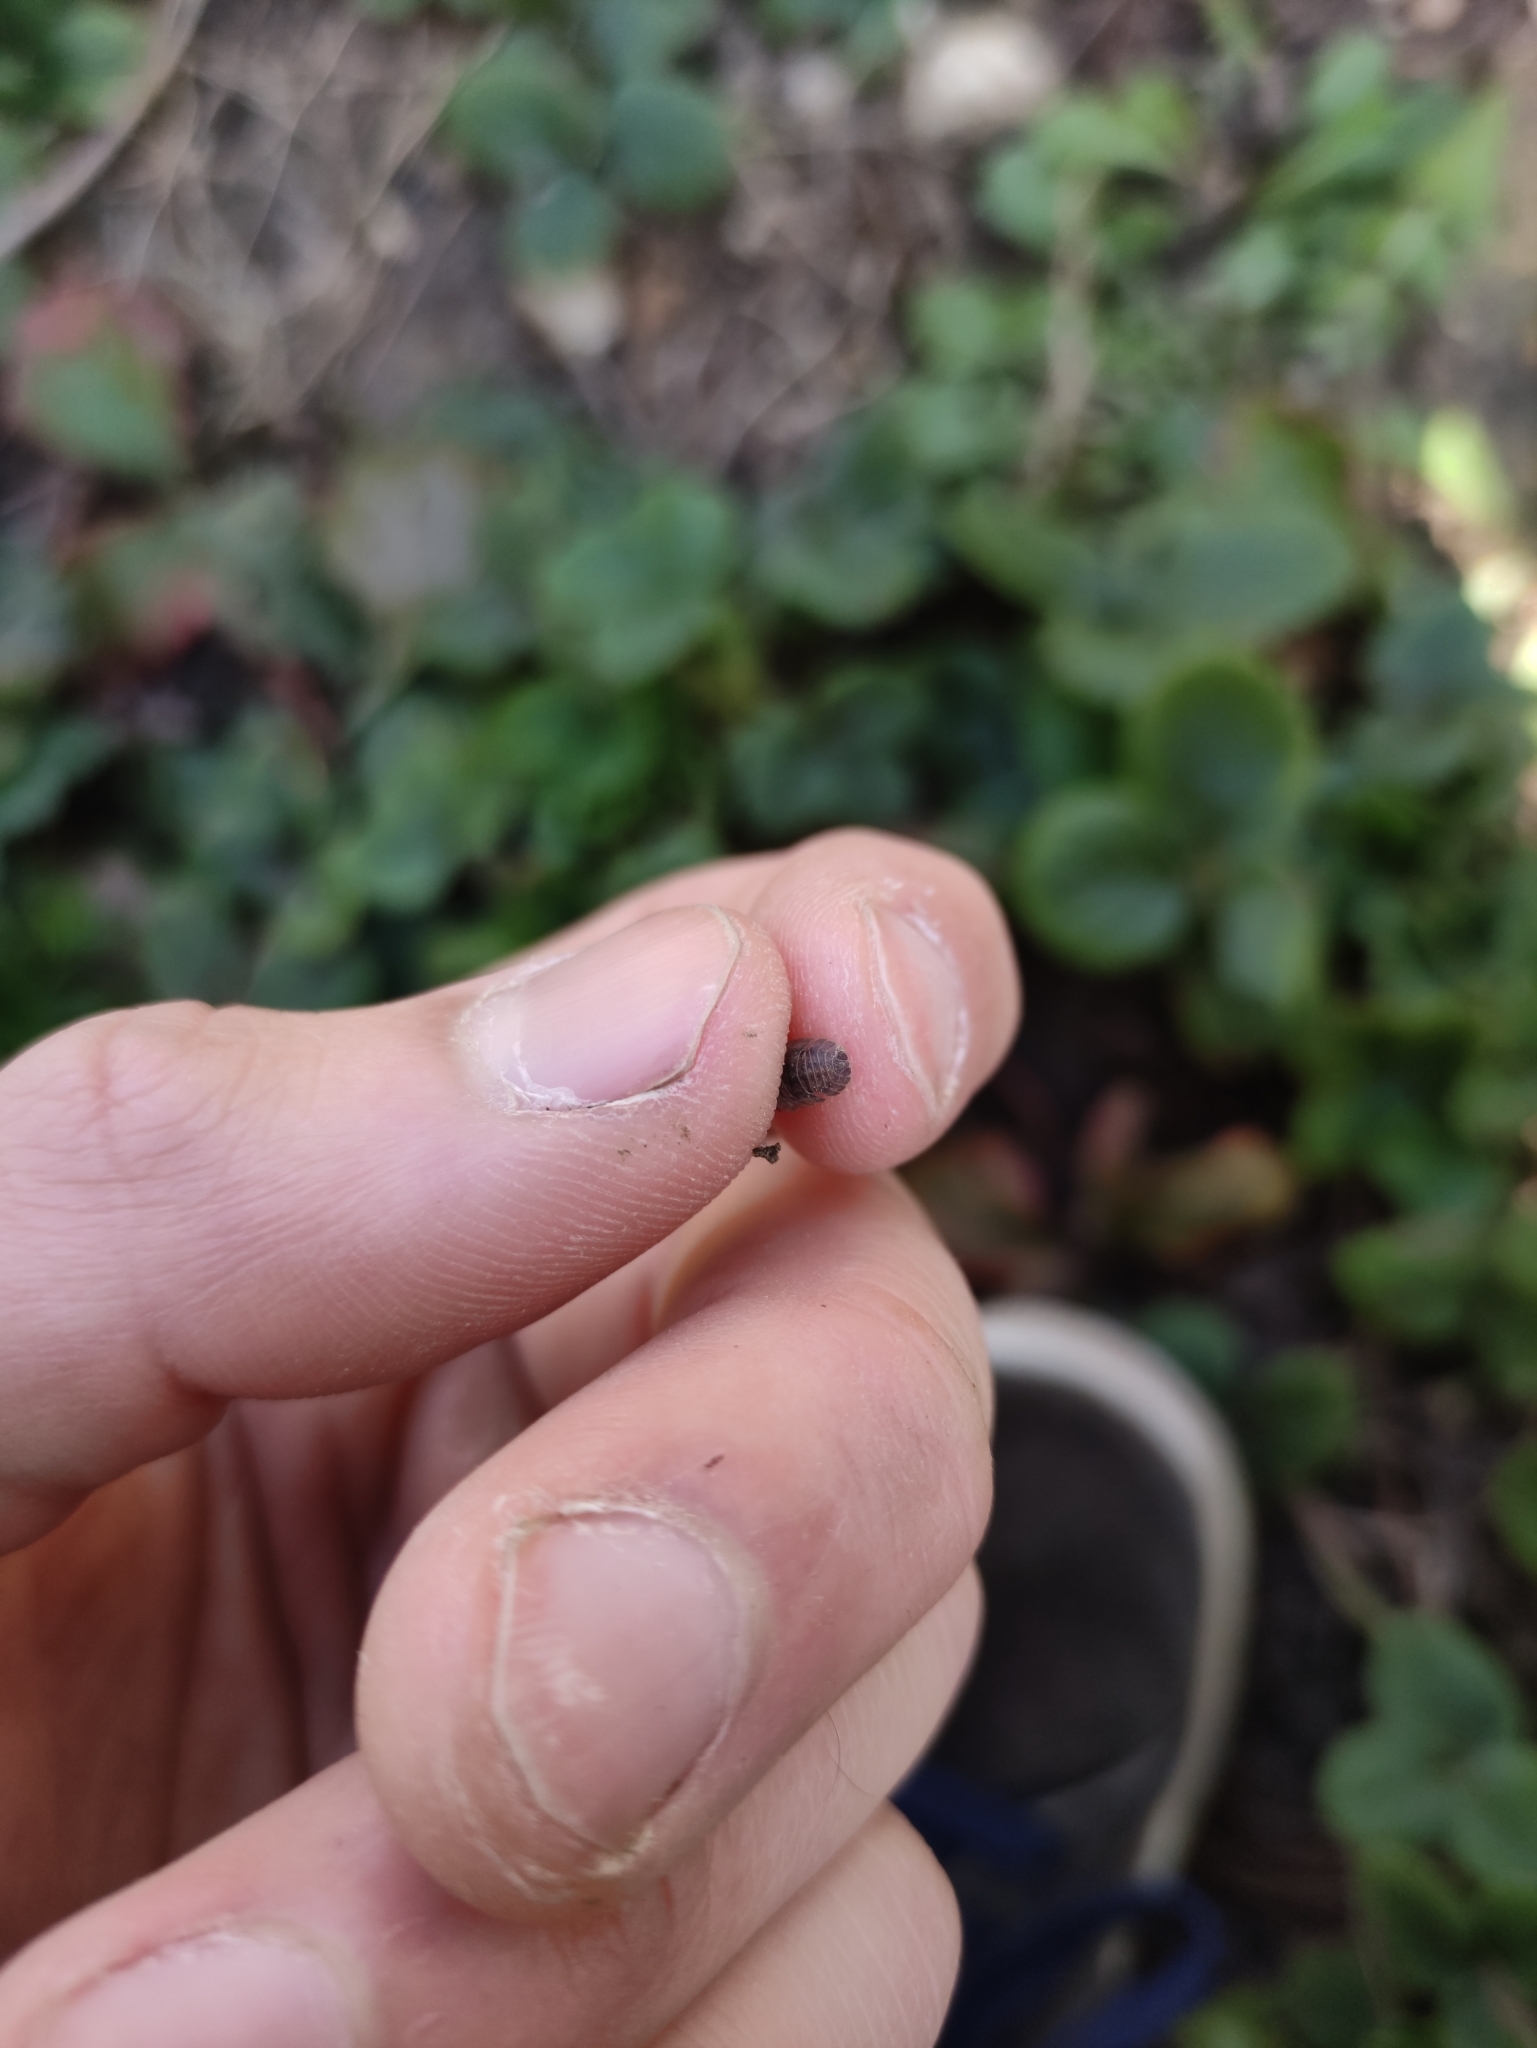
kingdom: Animalia
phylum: Arthropoda
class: Malacostraca
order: Isopoda
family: Armadillidiidae
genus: Armadillidium
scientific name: Armadillidium nasatum
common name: Isopod
